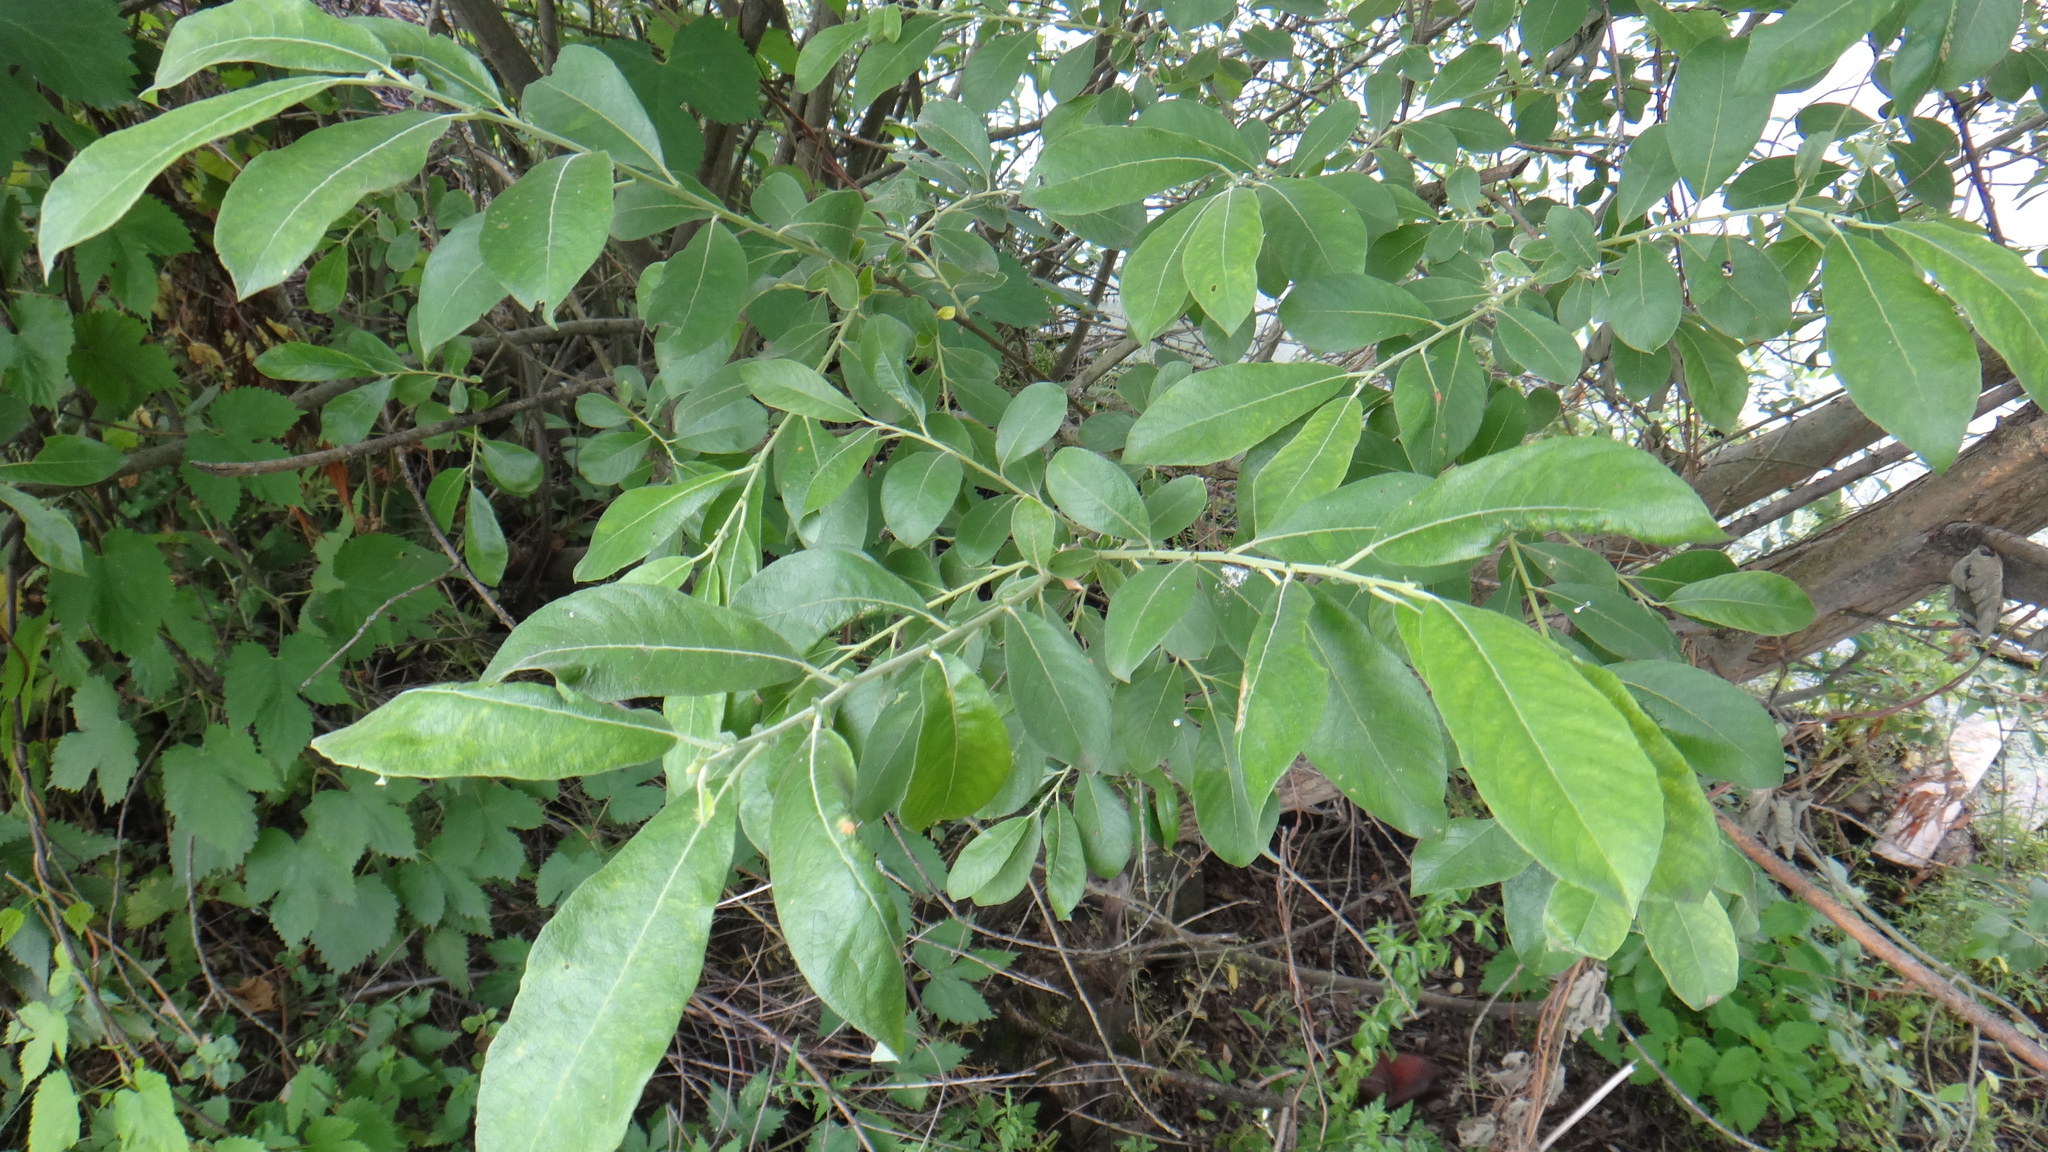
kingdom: Plantae
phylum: Tracheophyta
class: Magnoliopsida
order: Malpighiales
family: Salicaceae
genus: Salix
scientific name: Salix cinerea
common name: Common sallow
